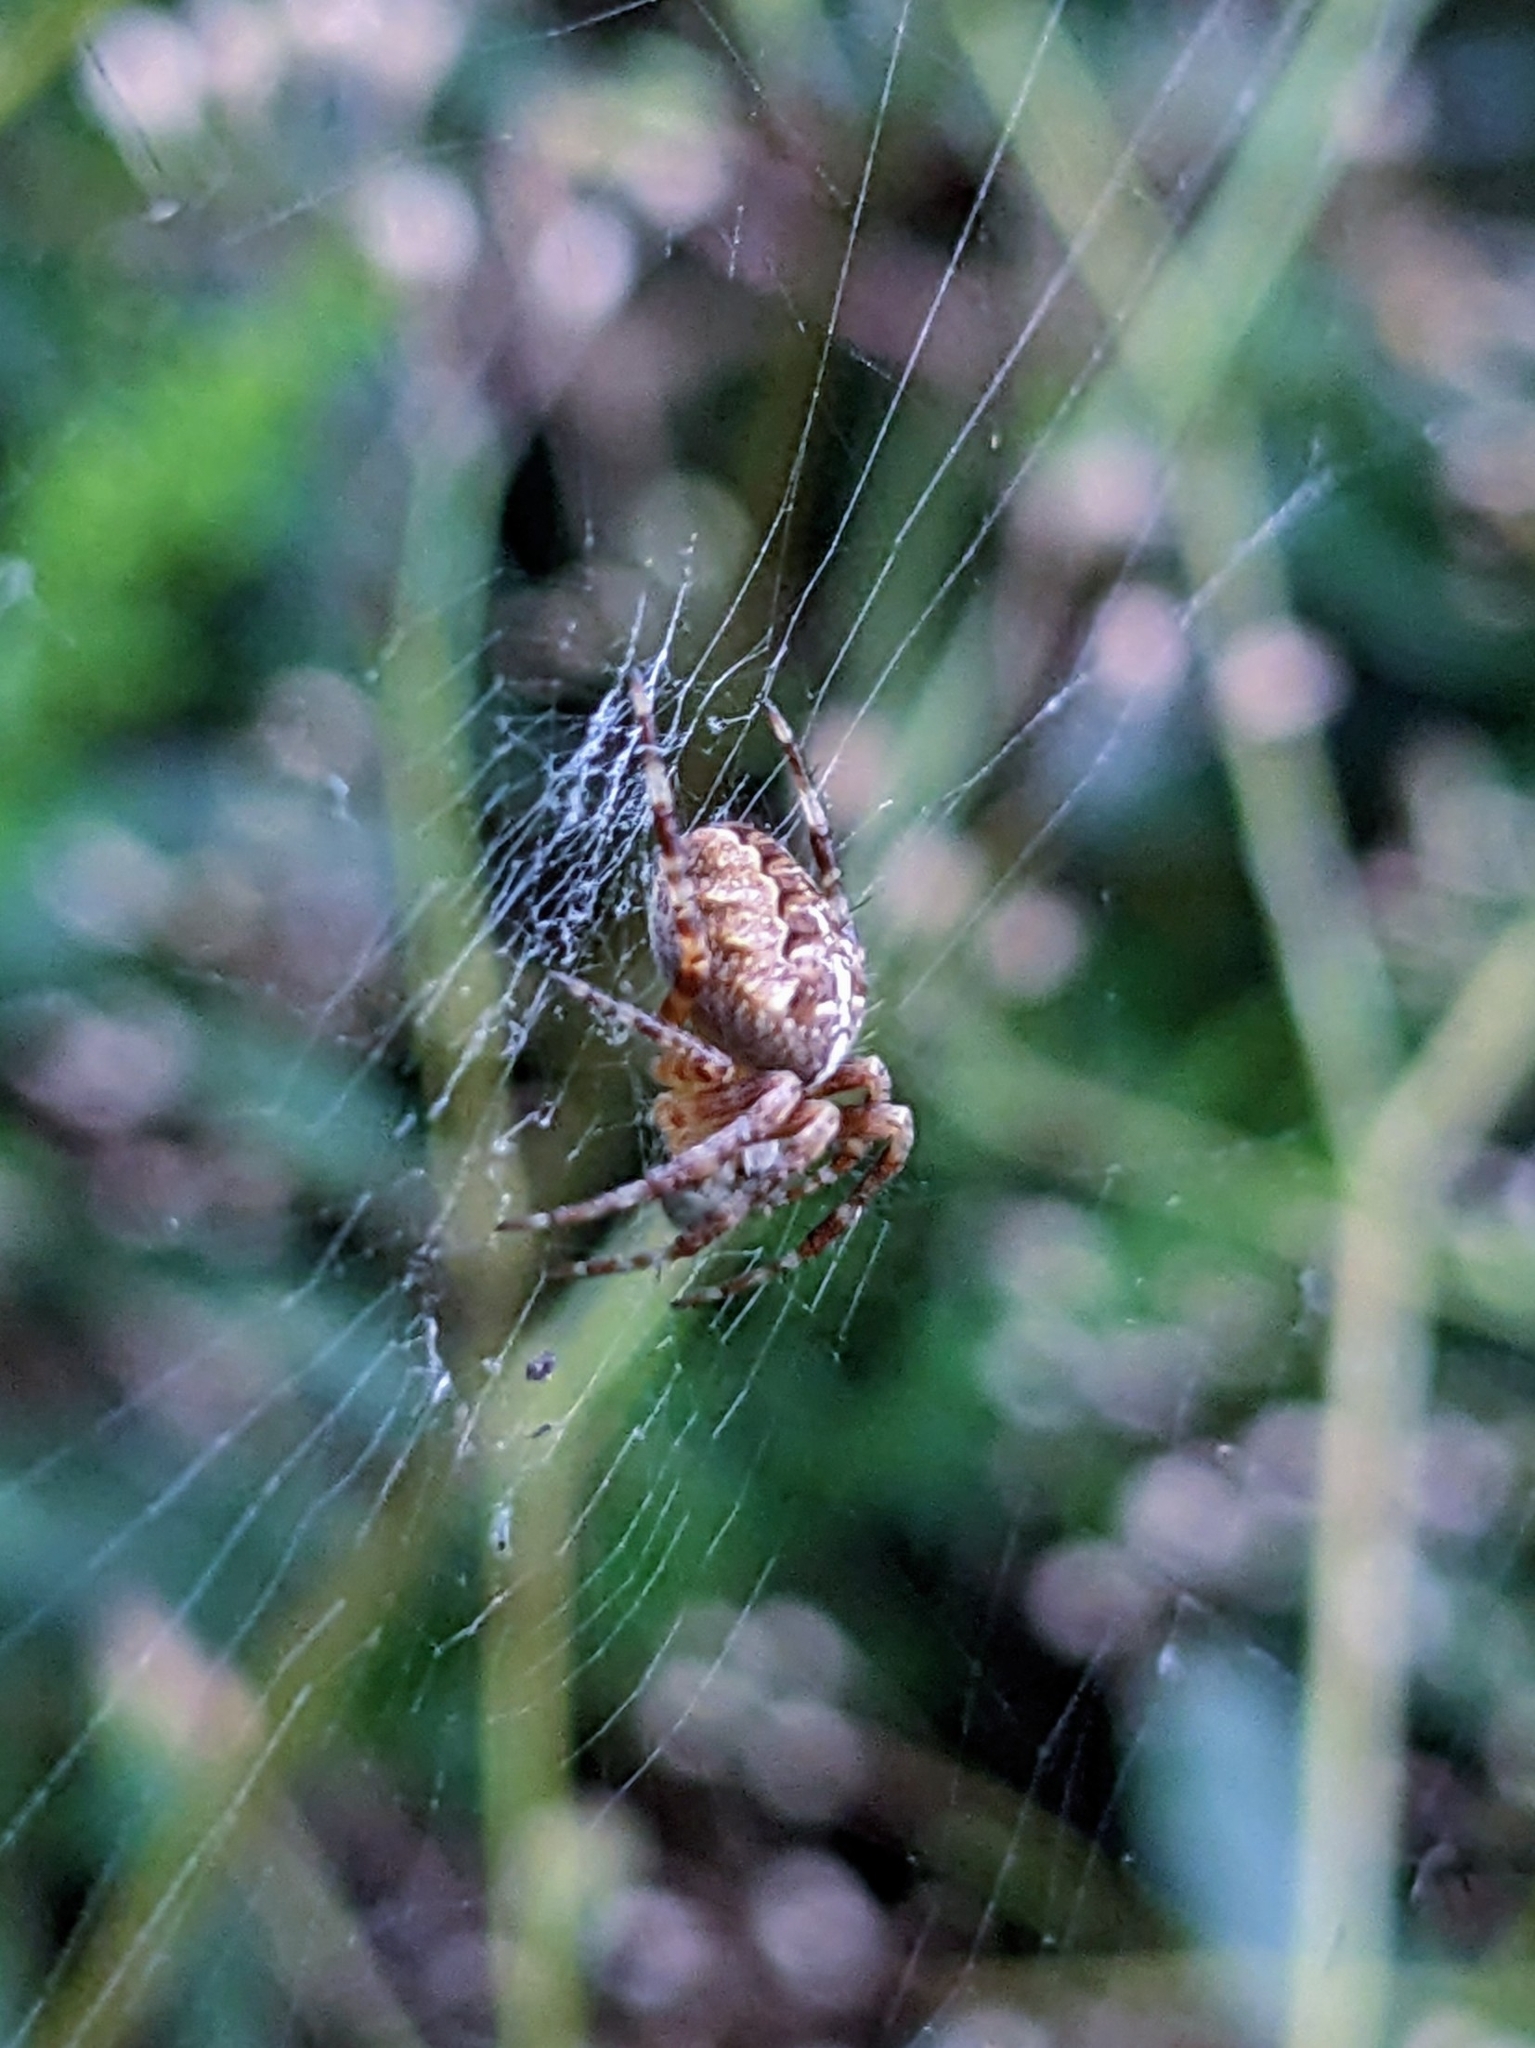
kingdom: Animalia
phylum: Arthropoda
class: Arachnida
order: Araneae
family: Araneidae
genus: Araneus
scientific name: Araneus diadematus
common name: Cross orbweaver
